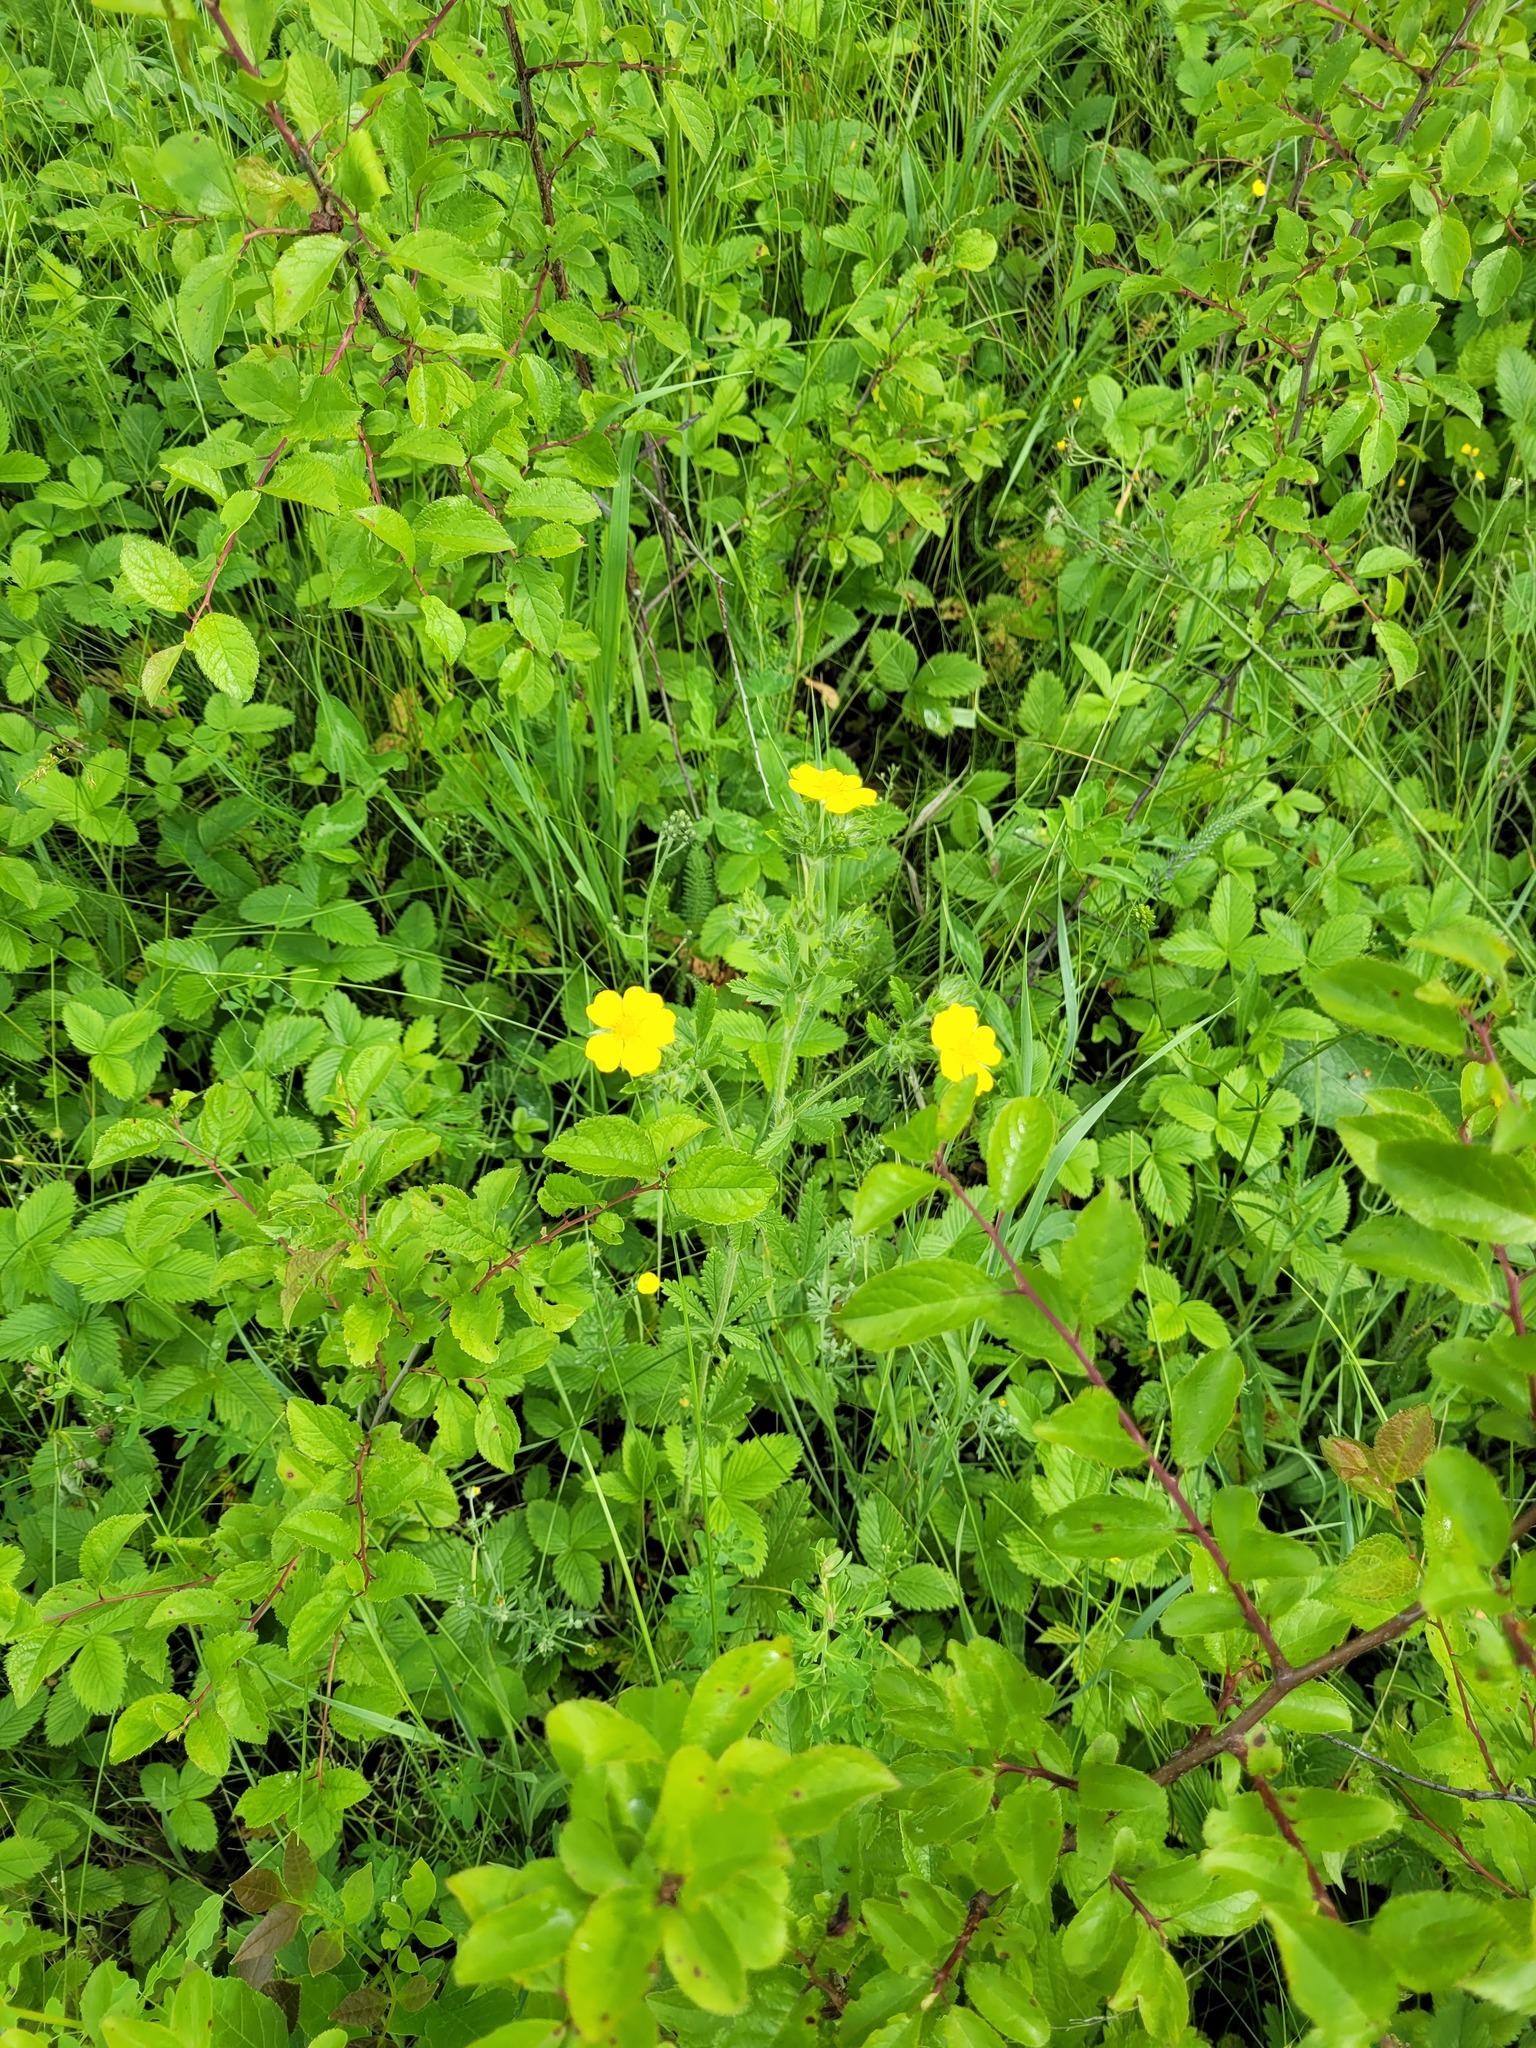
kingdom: Plantae
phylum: Tracheophyta
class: Magnoliopsida
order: Rosales
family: Rosaceae
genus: Potentilla
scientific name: Potentilla recta
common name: Sulphur cinquefoil
